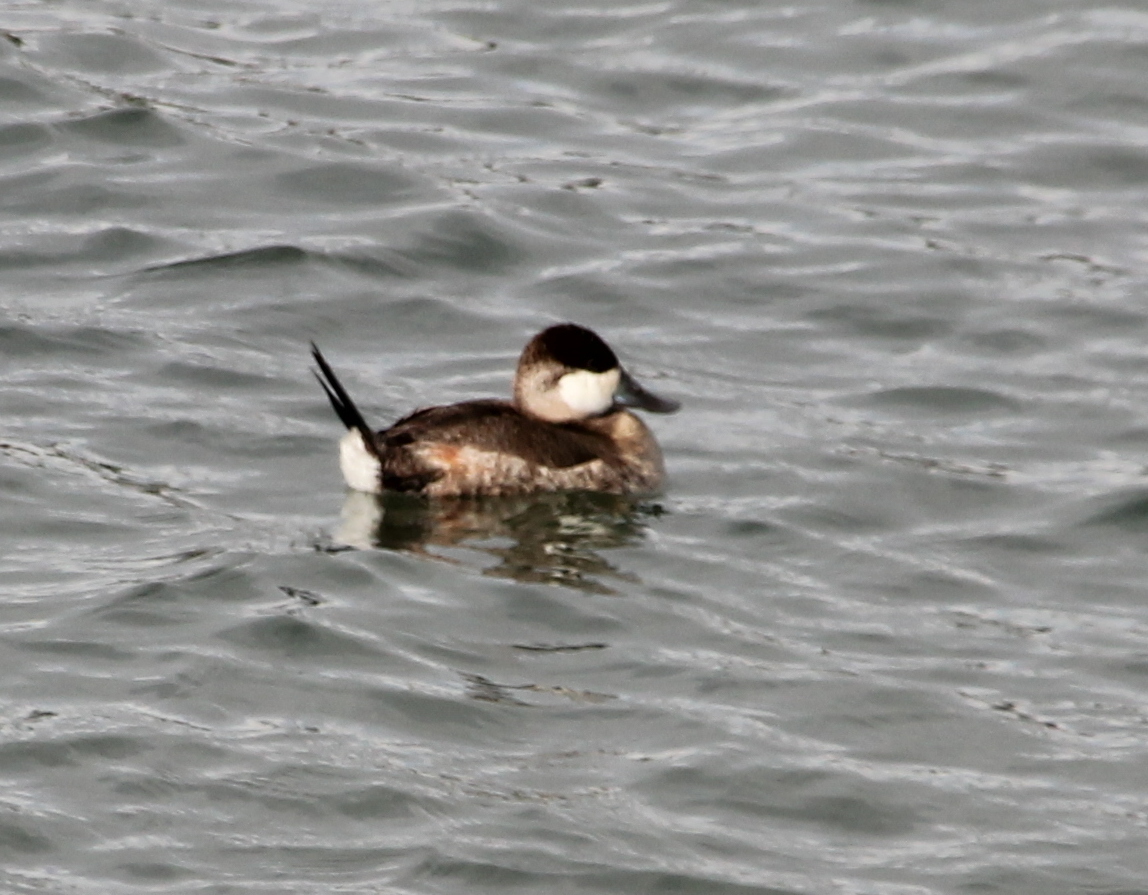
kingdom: Animalia
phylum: Chordata
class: Aves
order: Anseriformes
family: Anatidae
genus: Oxyura
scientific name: Oxyura jamaicensis
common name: Ruddy duck
